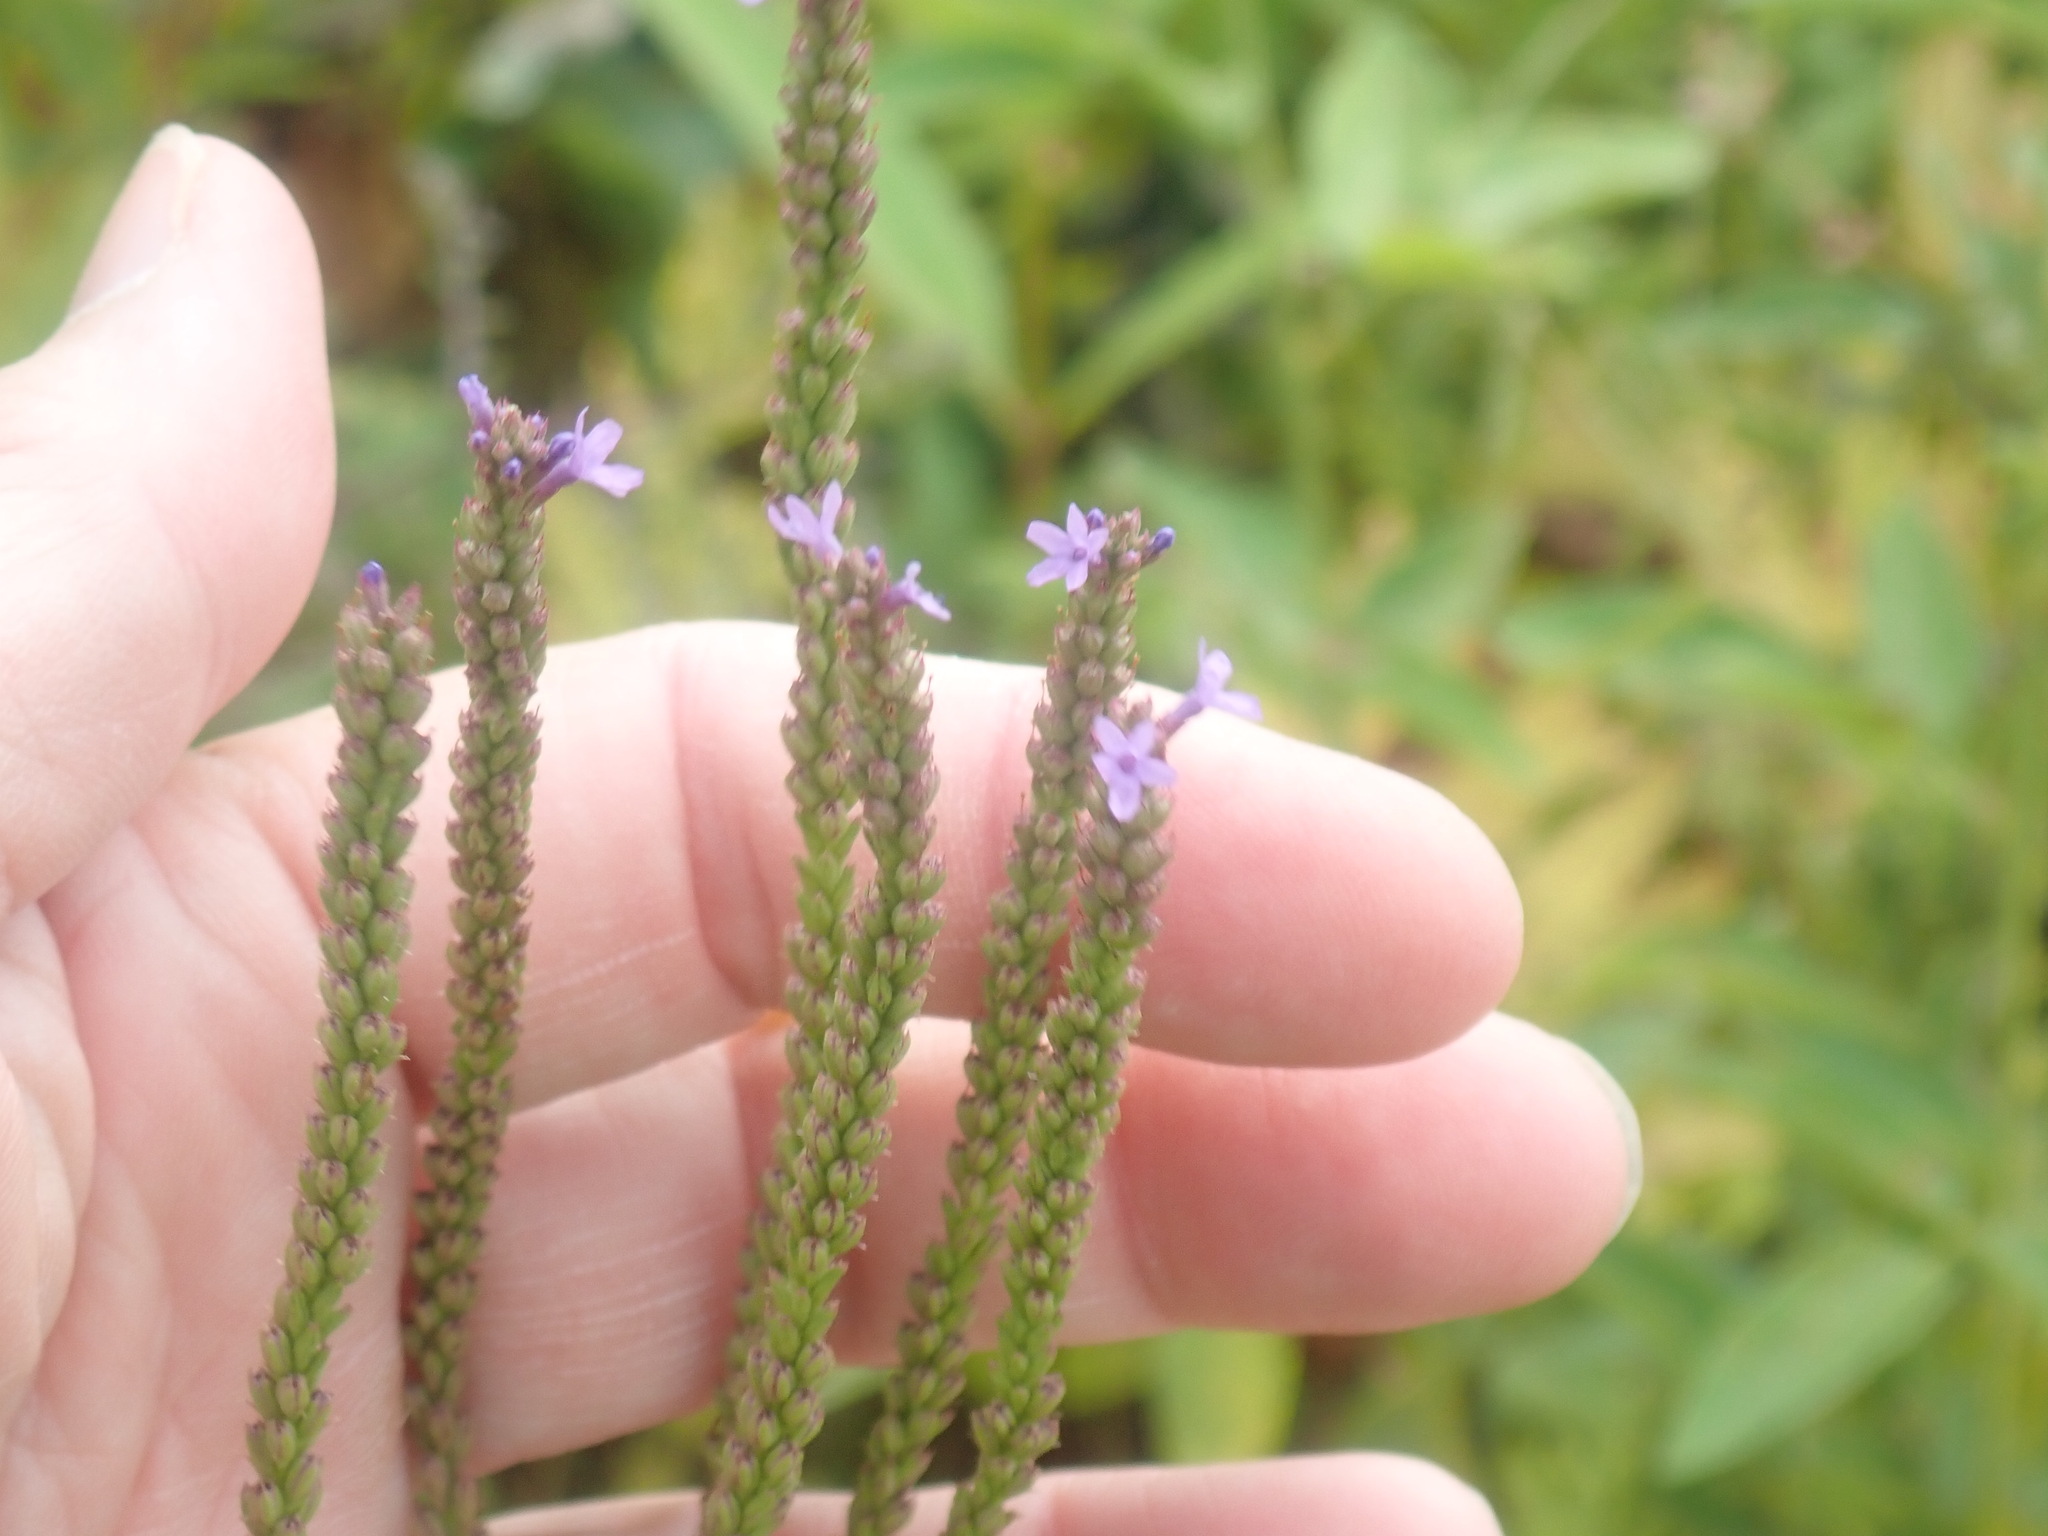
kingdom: Plantae
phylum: Tracheophyta
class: Magnoliopsida
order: Lamiales
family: Verbenaceae
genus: Verbena
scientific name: Verbena hastata
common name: American blue vervain
